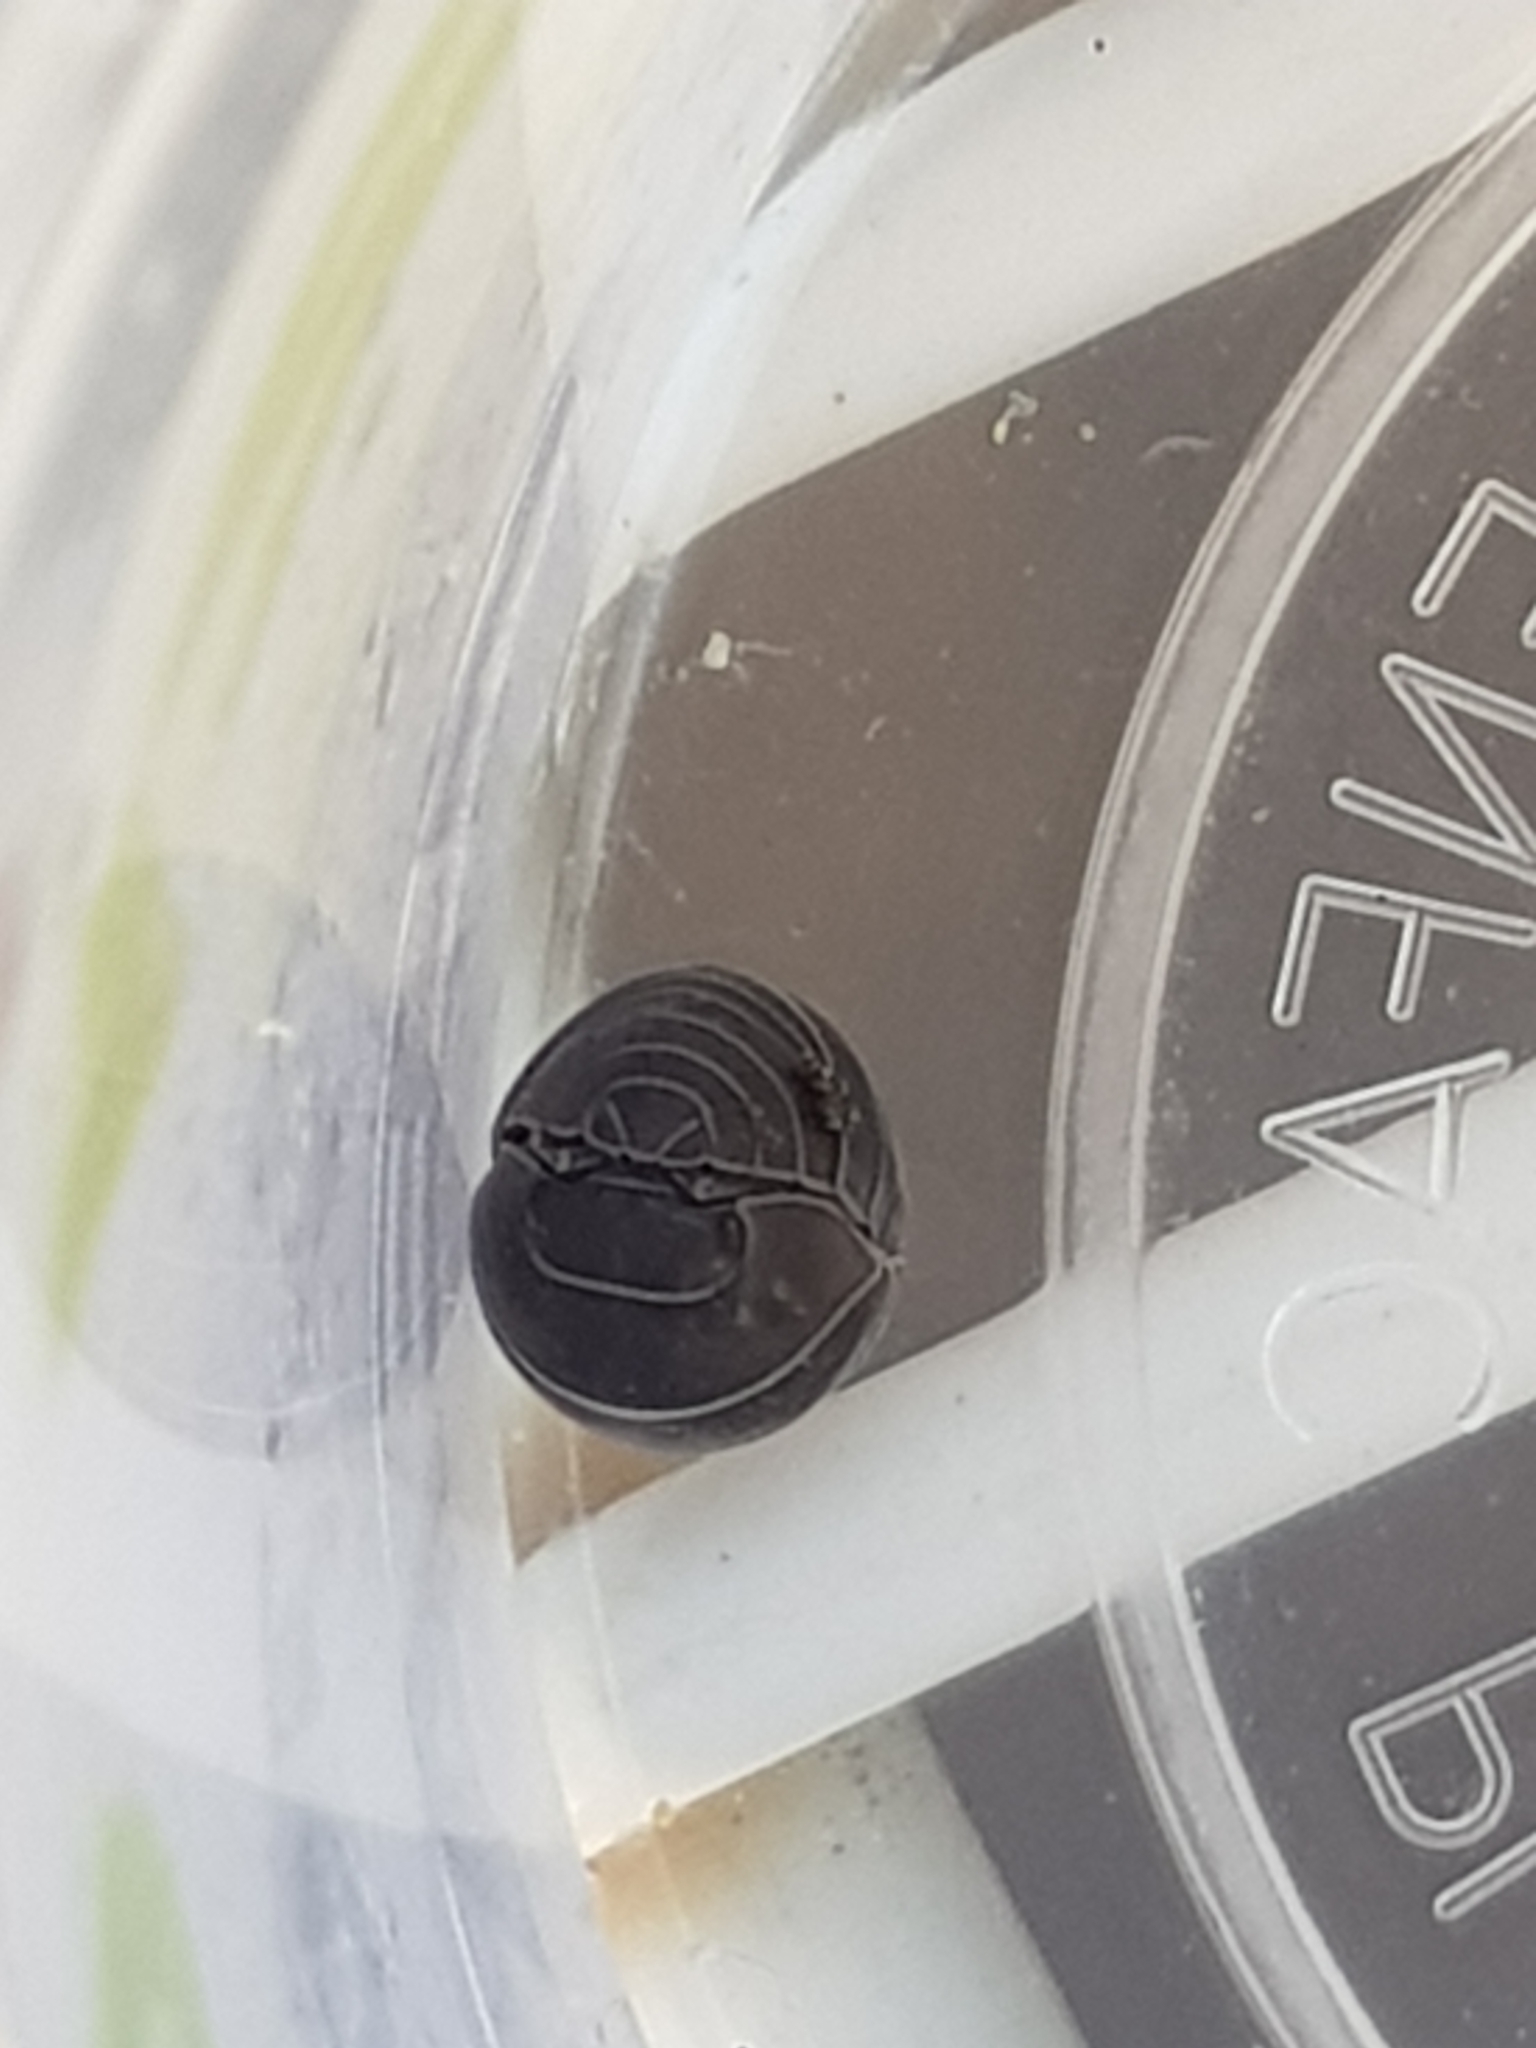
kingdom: Animalia
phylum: Arthropoda
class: Malacostraca
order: Isopoda
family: Armadillidiidae
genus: Armadillidium
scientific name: Armadillidium vulgare
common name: Common pill woodlouse
